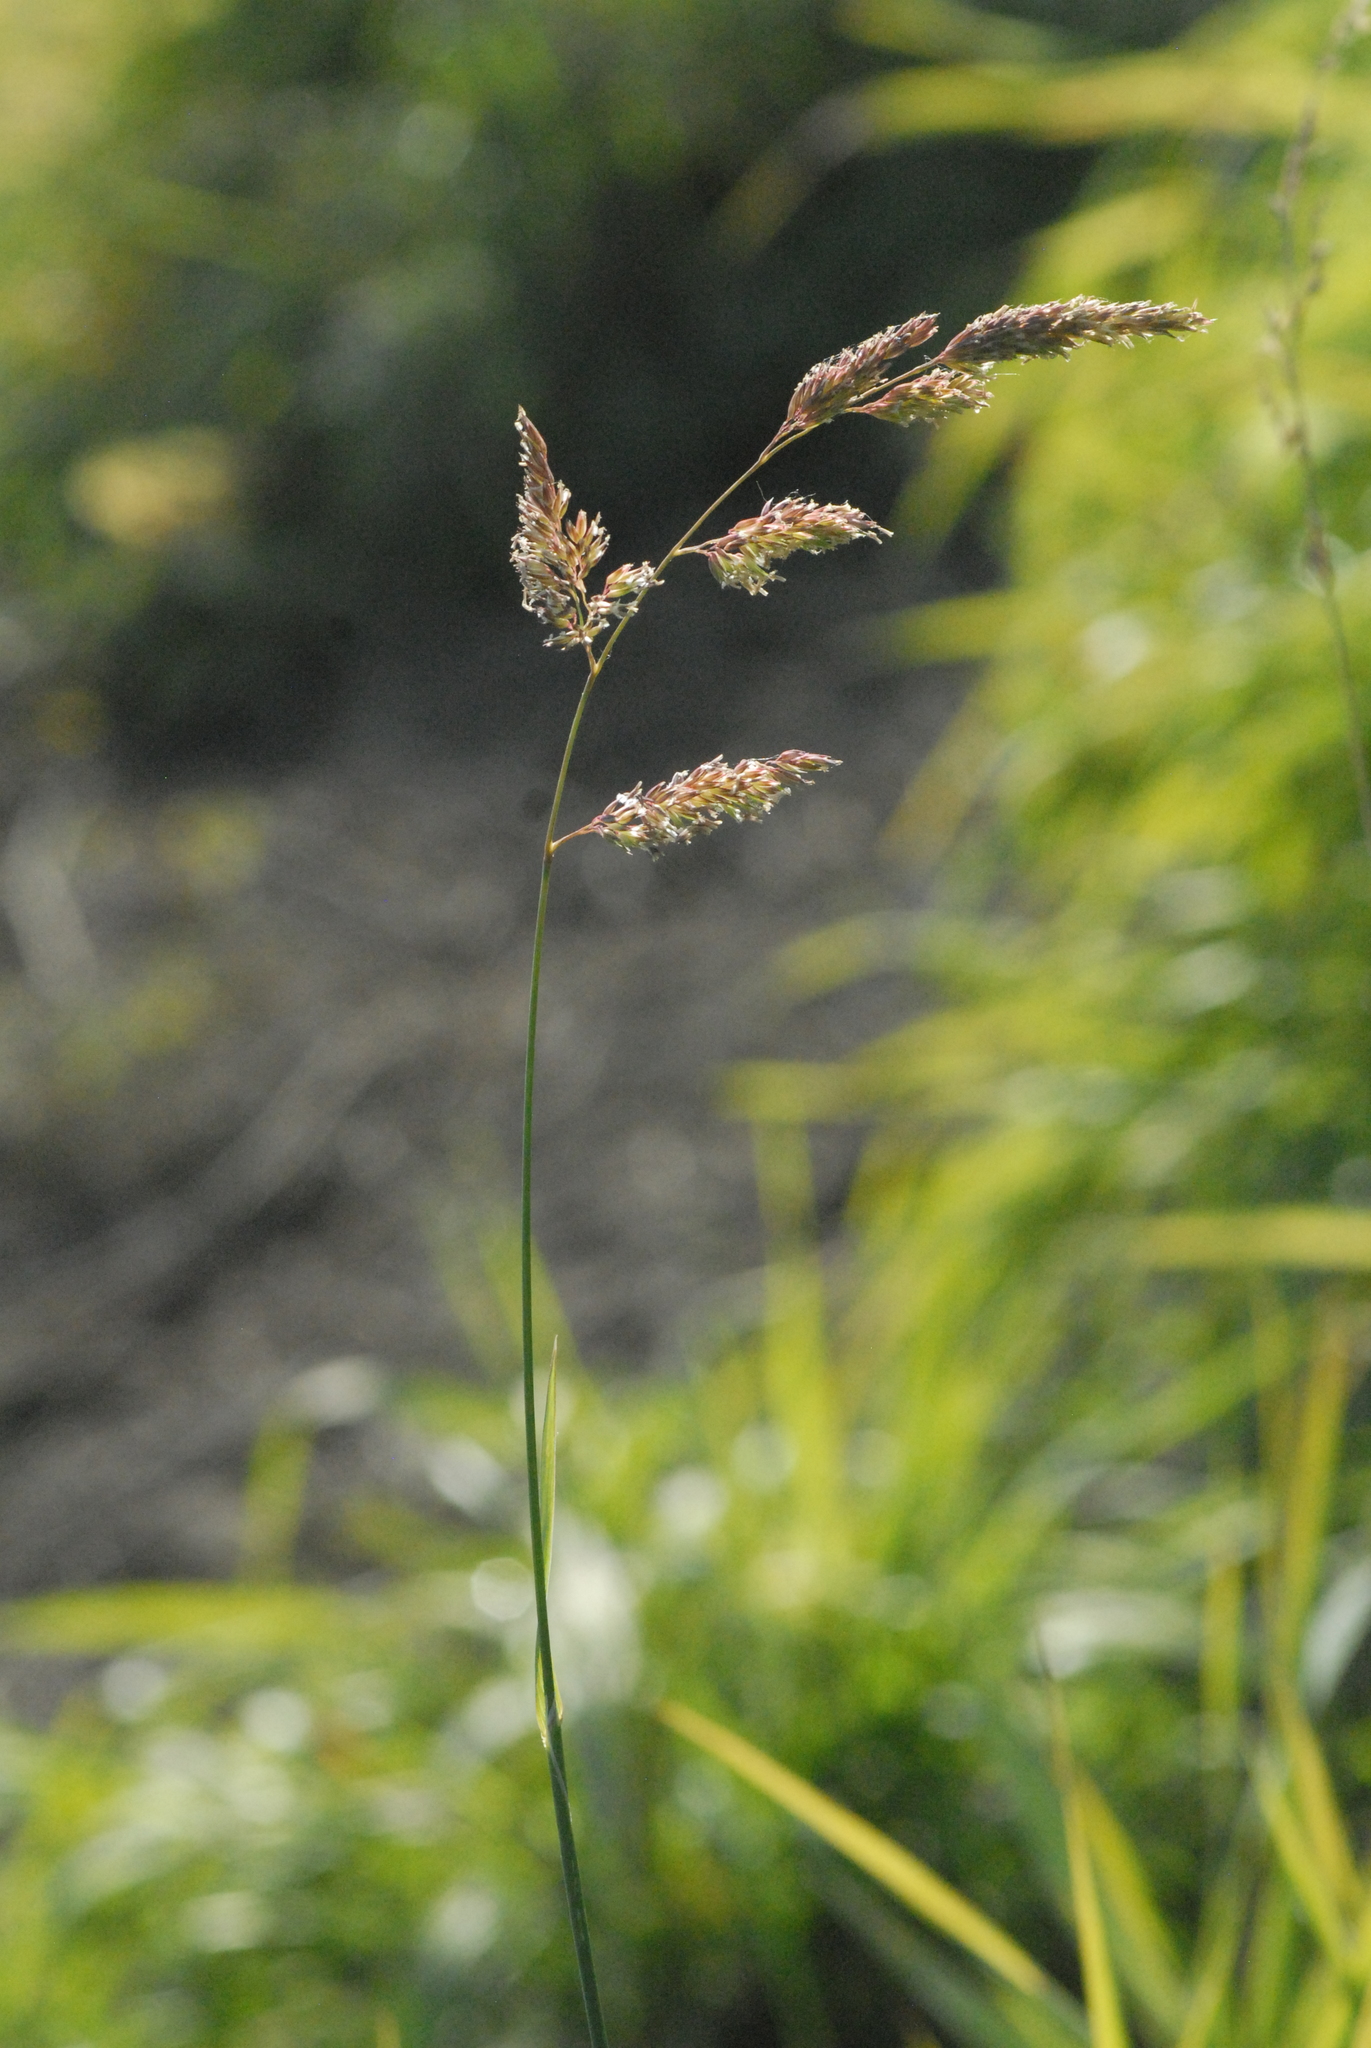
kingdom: Plantae
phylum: Tracheophyta
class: Liliopsida
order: Poales
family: Poaceae
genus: Phalaris
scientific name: Phalaris arundinacea
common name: Reed canary-grass
